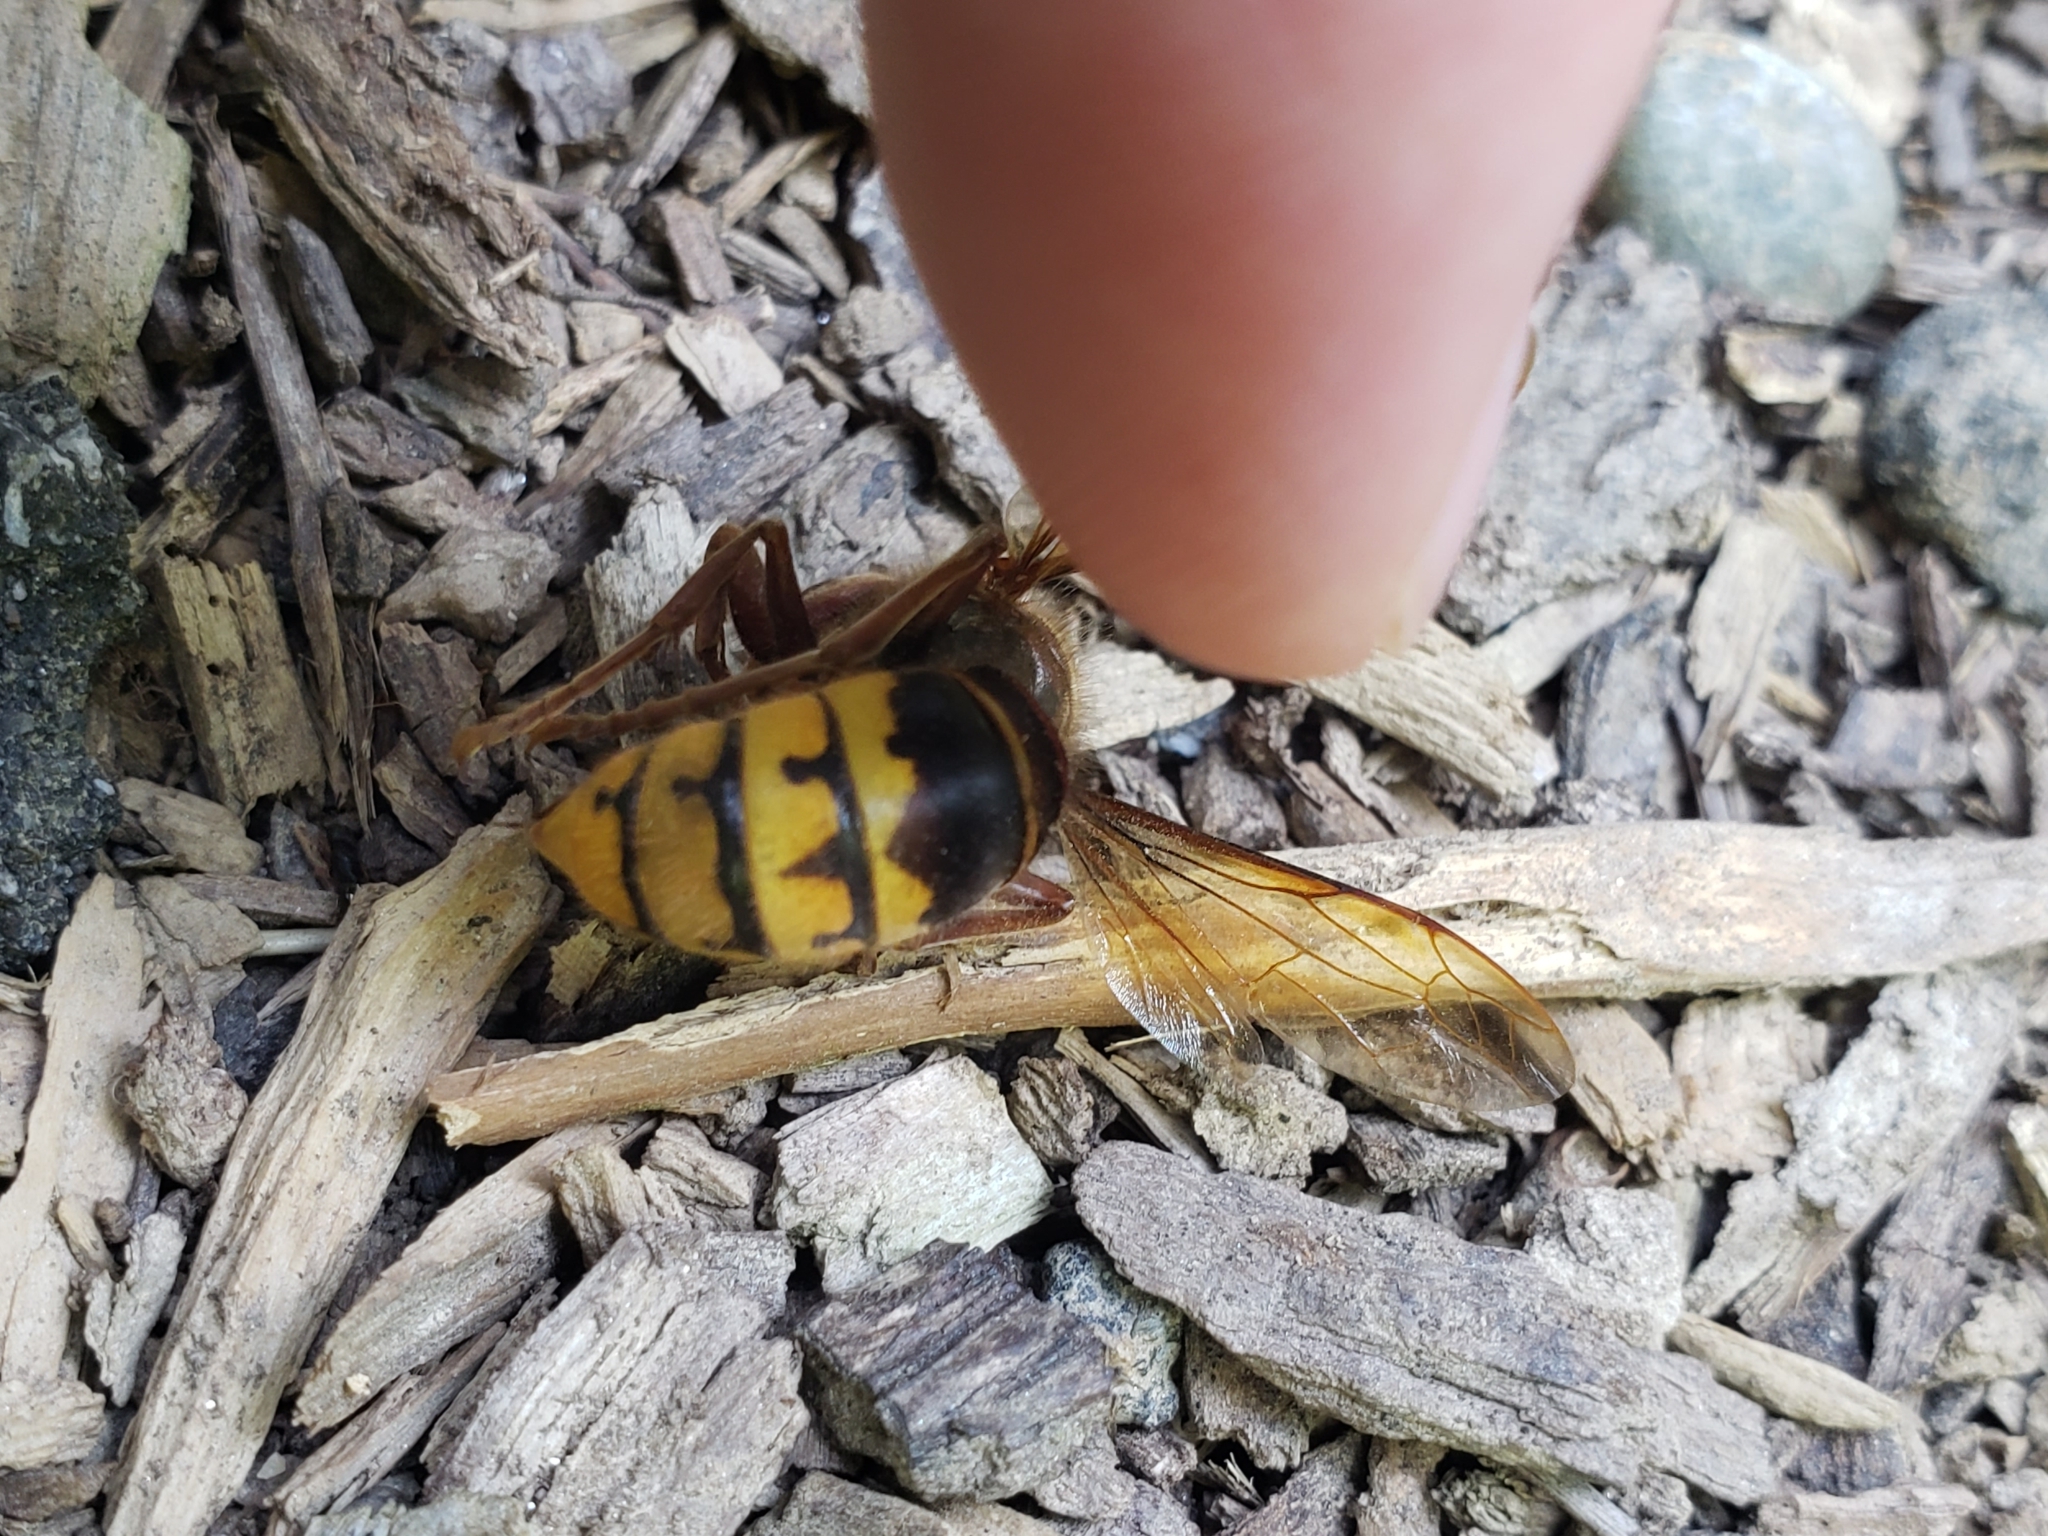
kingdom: Animalia
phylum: Arthropoda
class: Insecta
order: Hymenoptera
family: Vespidae
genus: Vespa
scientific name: Vespa crabro
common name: Hornet
